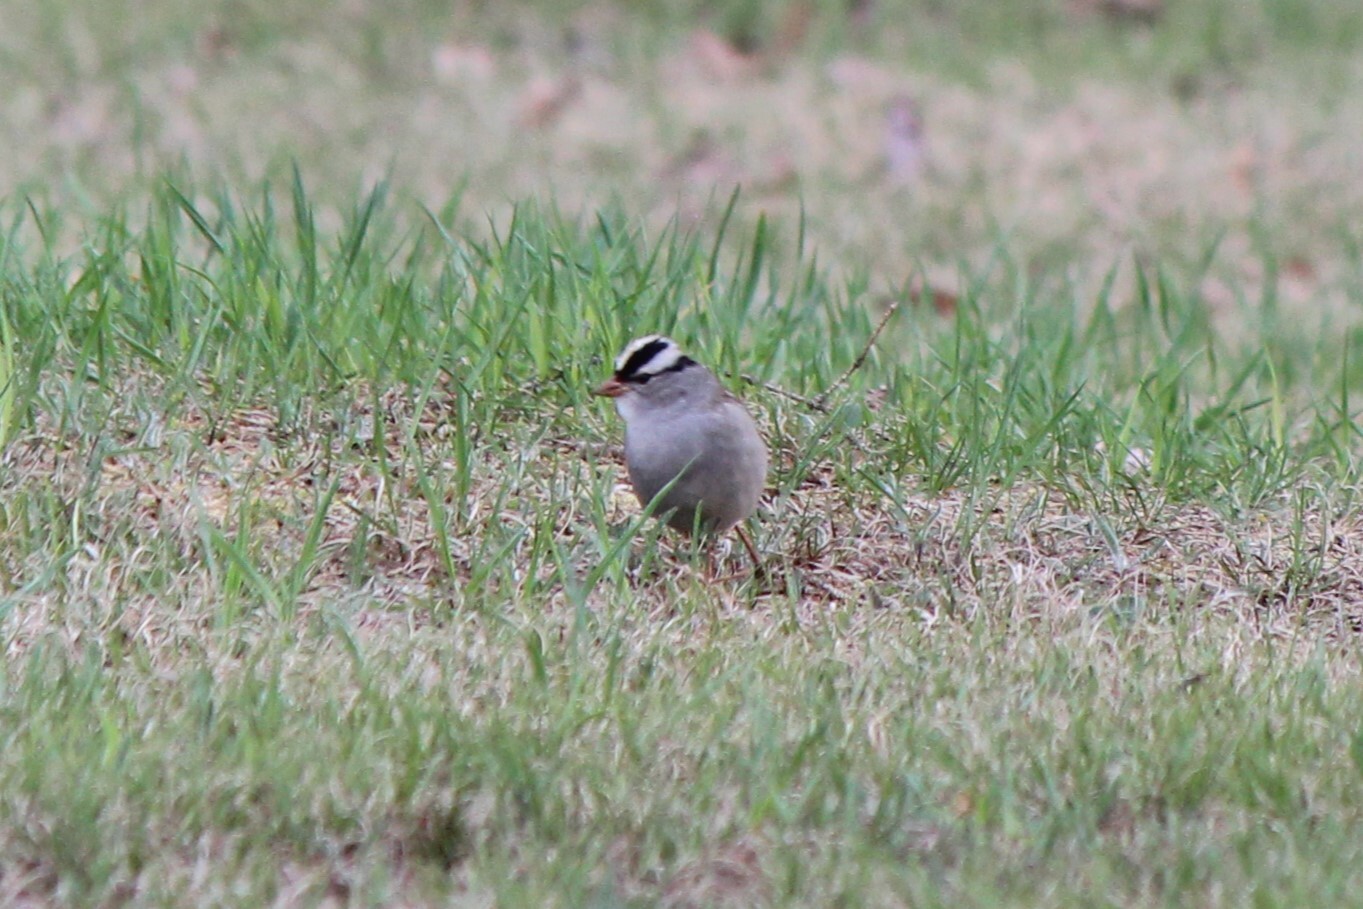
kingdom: Animalia
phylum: Chordata
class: Aves
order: Passeriformes
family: Passerellidae
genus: Zonotrichia
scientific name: Zonotrichia leucophrys
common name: White-crowned sparrow
